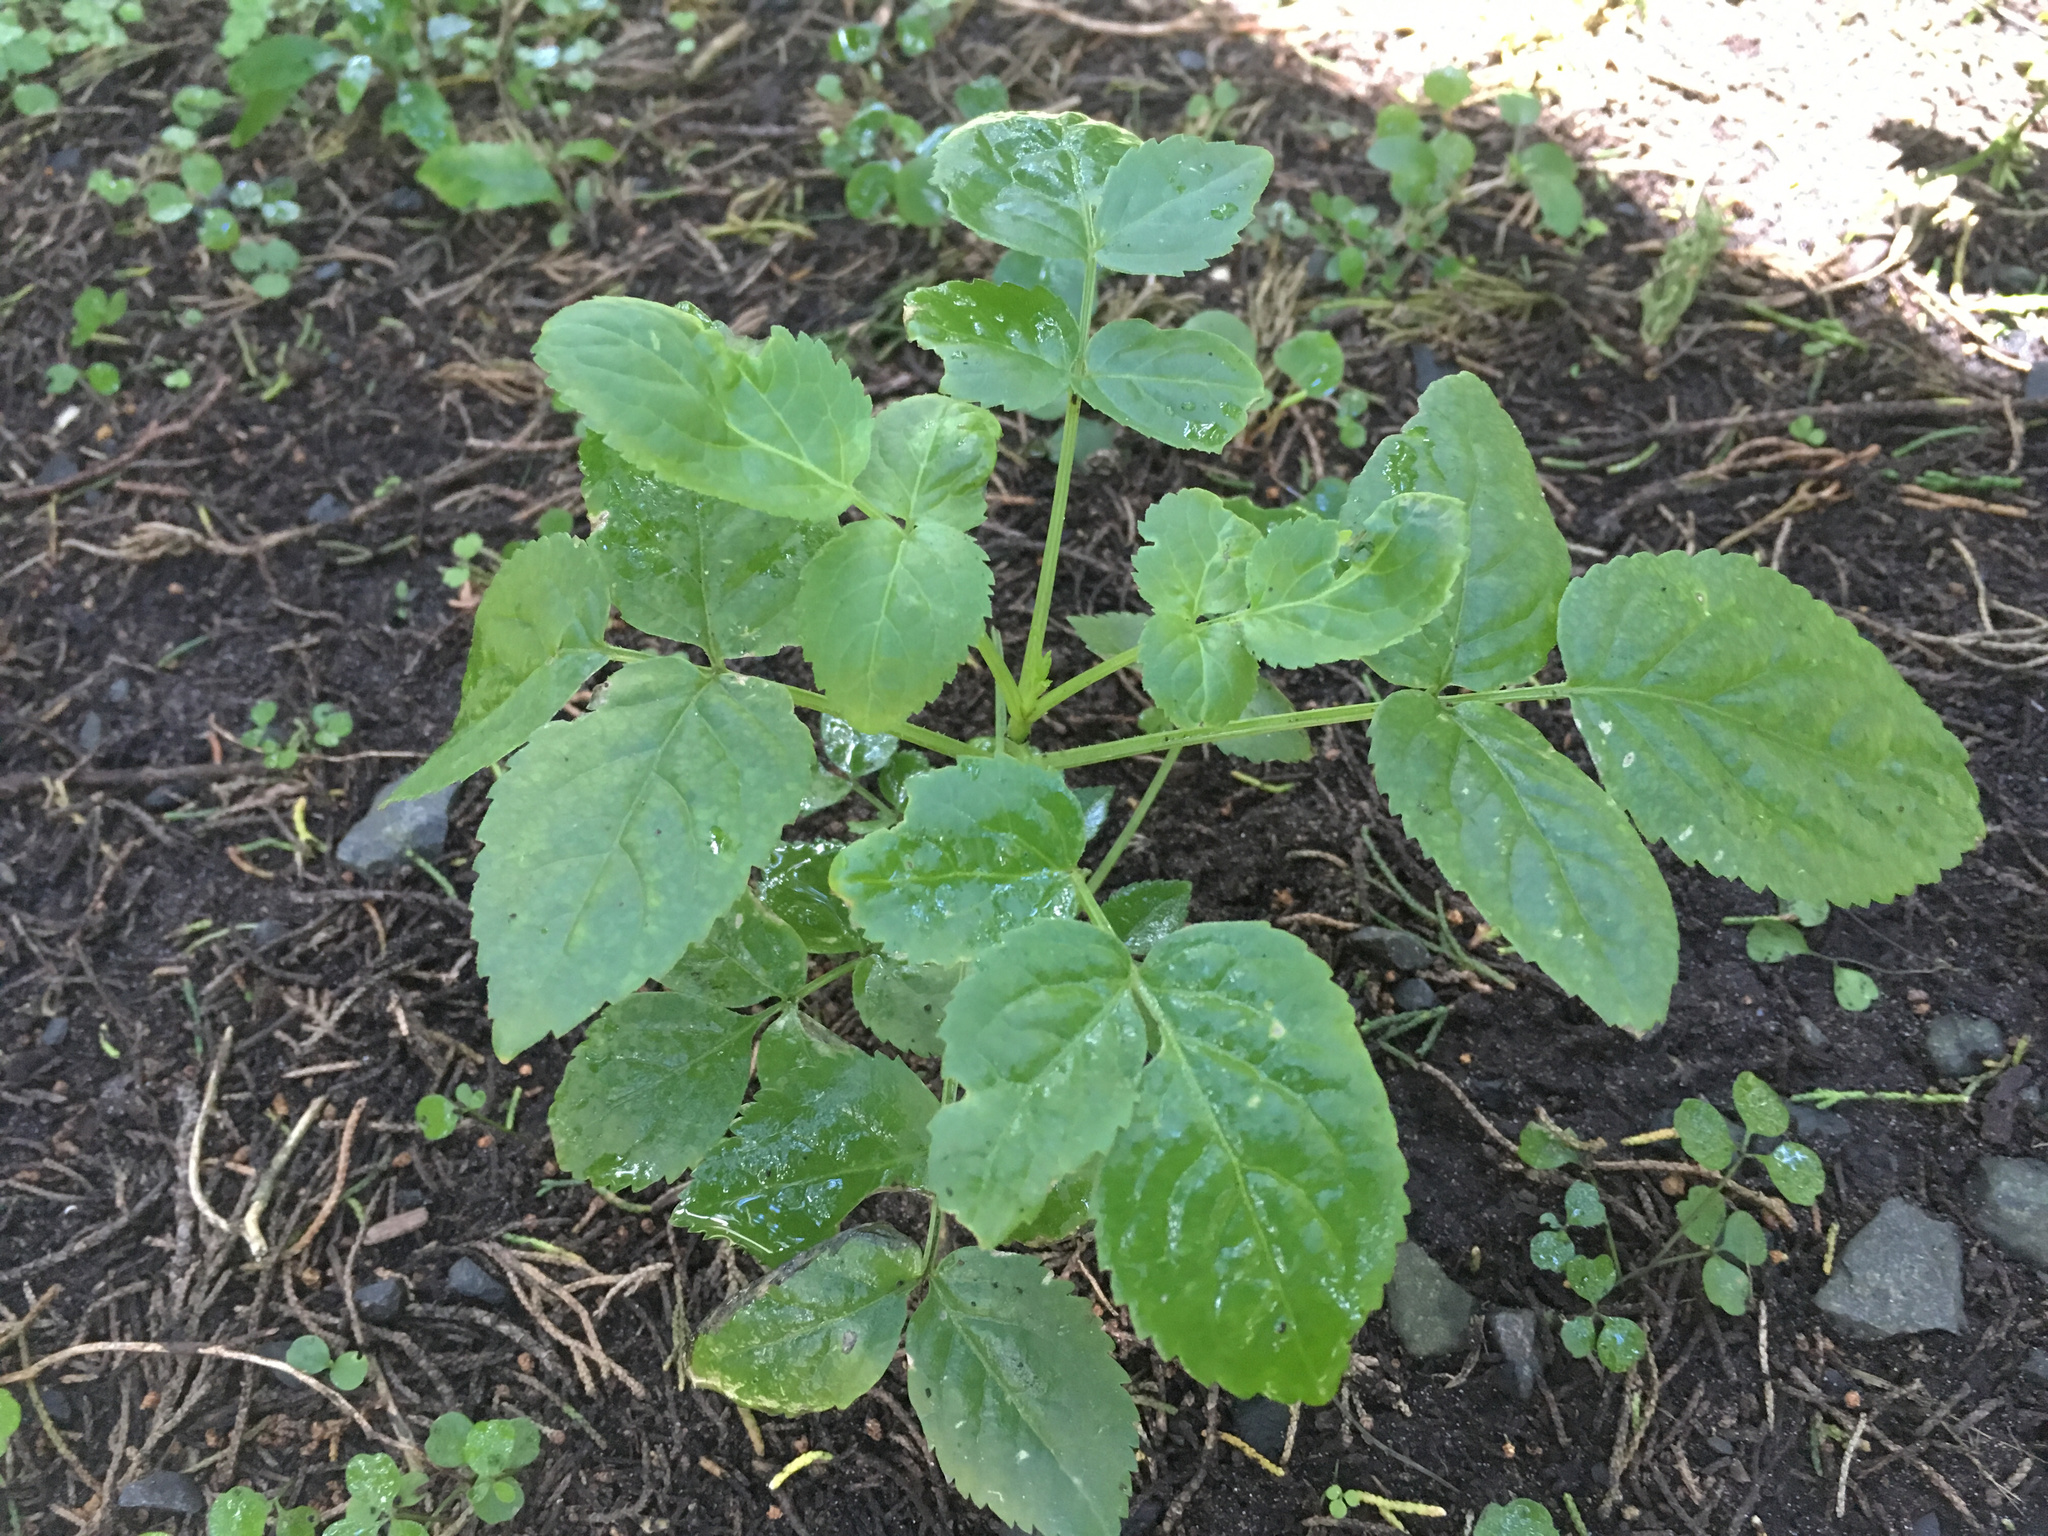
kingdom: Plantae
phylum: Tracheophyta
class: Magnoliopsida
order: Dipsacales
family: Viburnaceae
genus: Sambucus
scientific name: Sambucus nigra
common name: Elder
